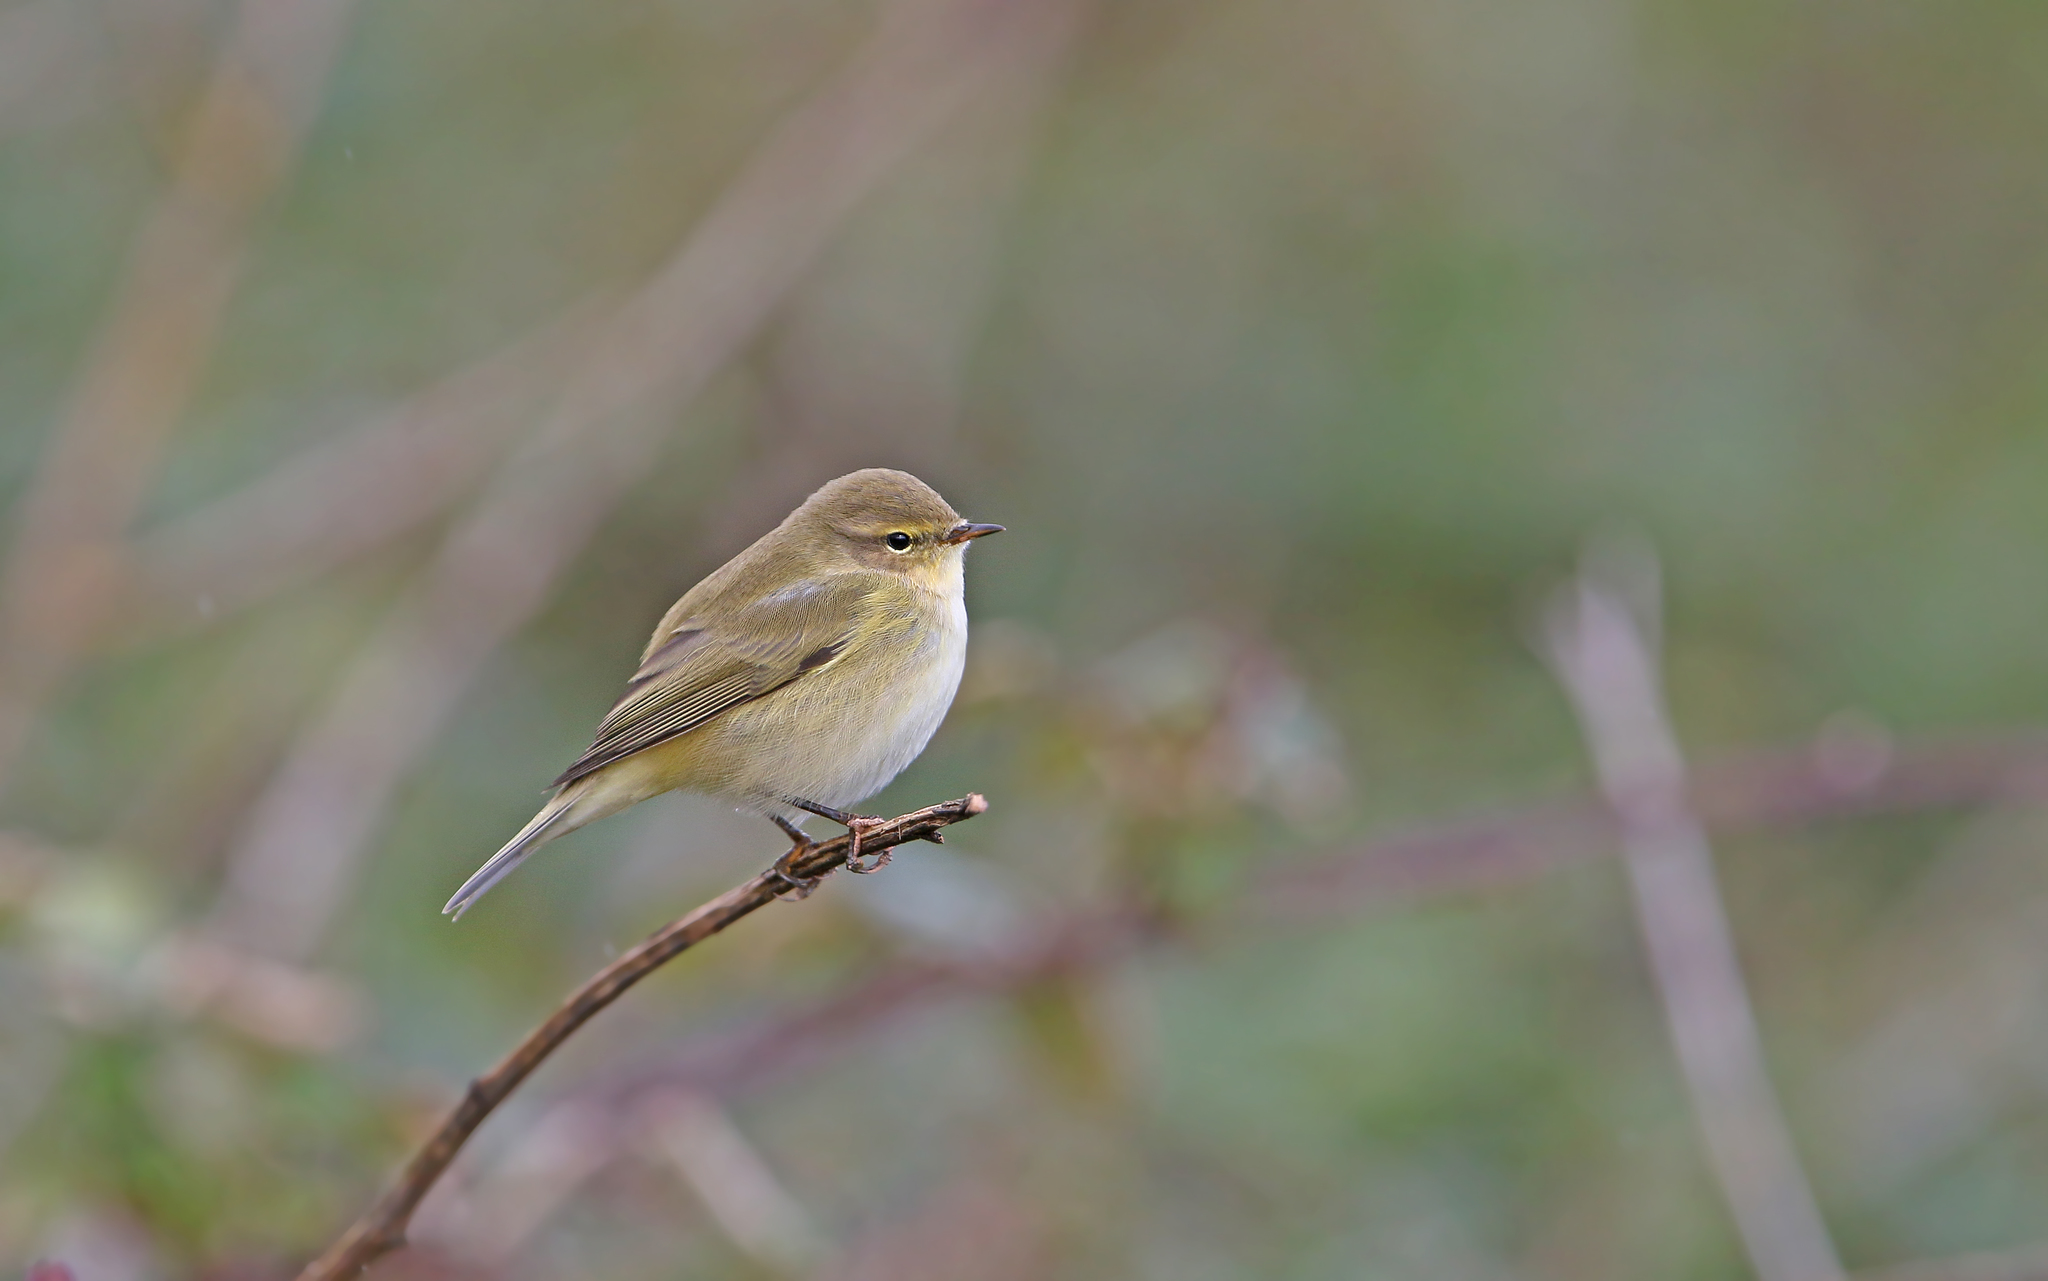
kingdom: Animalia
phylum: Chordata
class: Aves
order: Passeriformes
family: Phylloscopidae
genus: Phylloscopus
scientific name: Phylloscopus collybita
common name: Common chiffchaff
